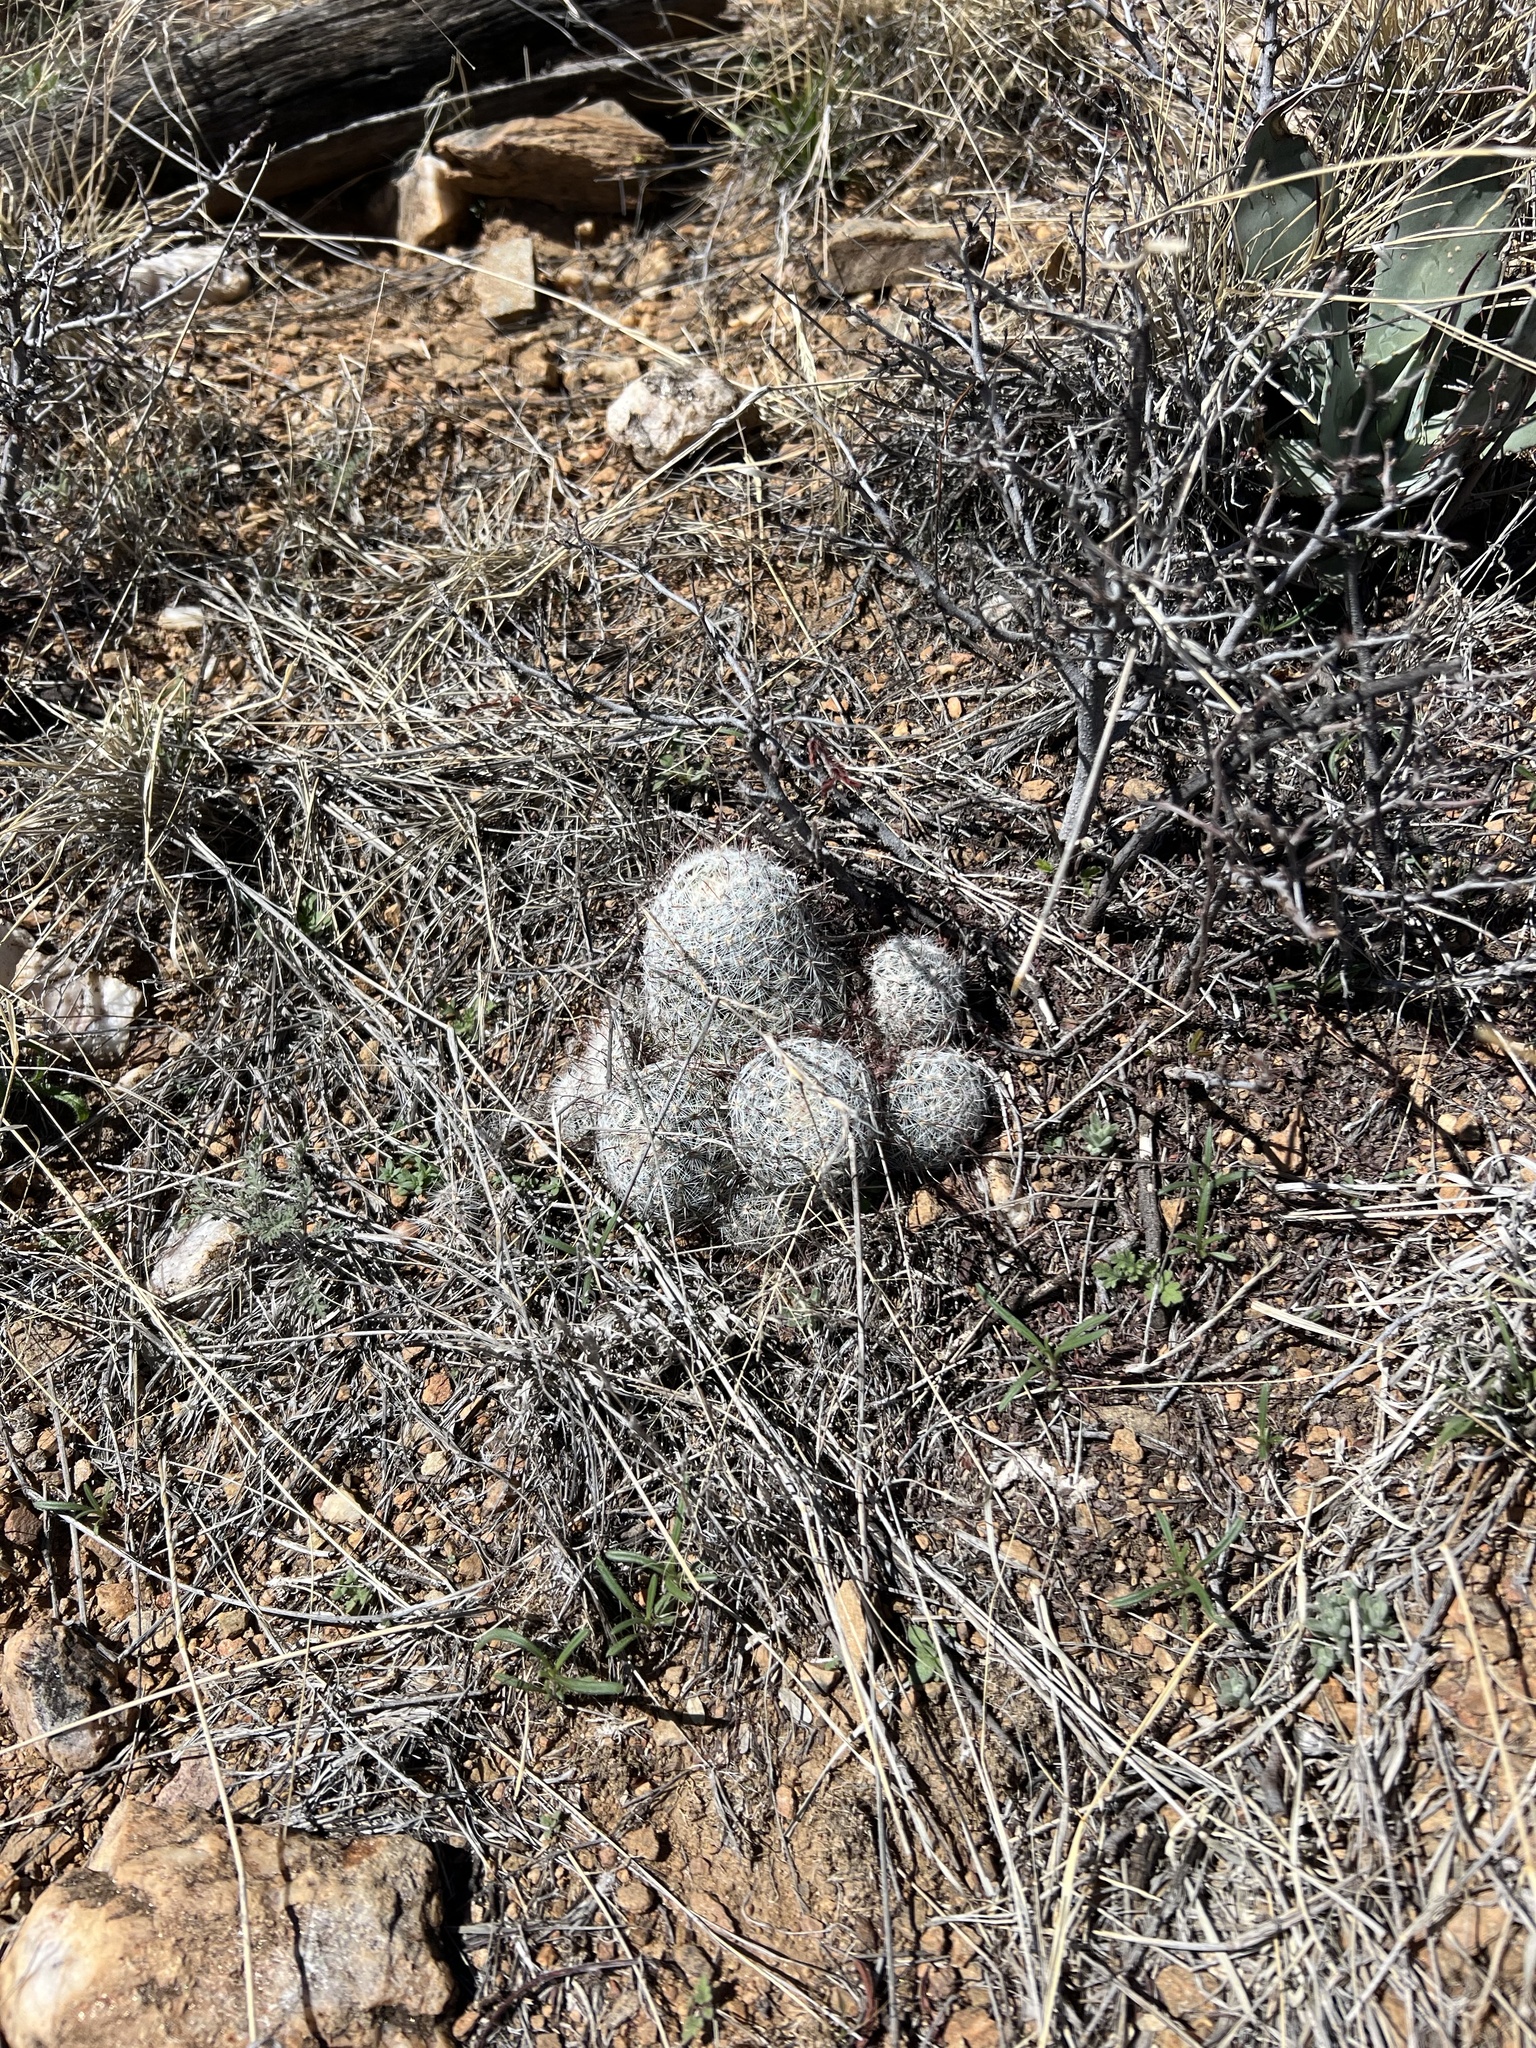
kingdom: Plantae
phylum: Tracheophyta
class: Magnoliopsida
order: Caryophyllales
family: Cactaceae
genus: Cochemiea
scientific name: Cochemiea grahamii
